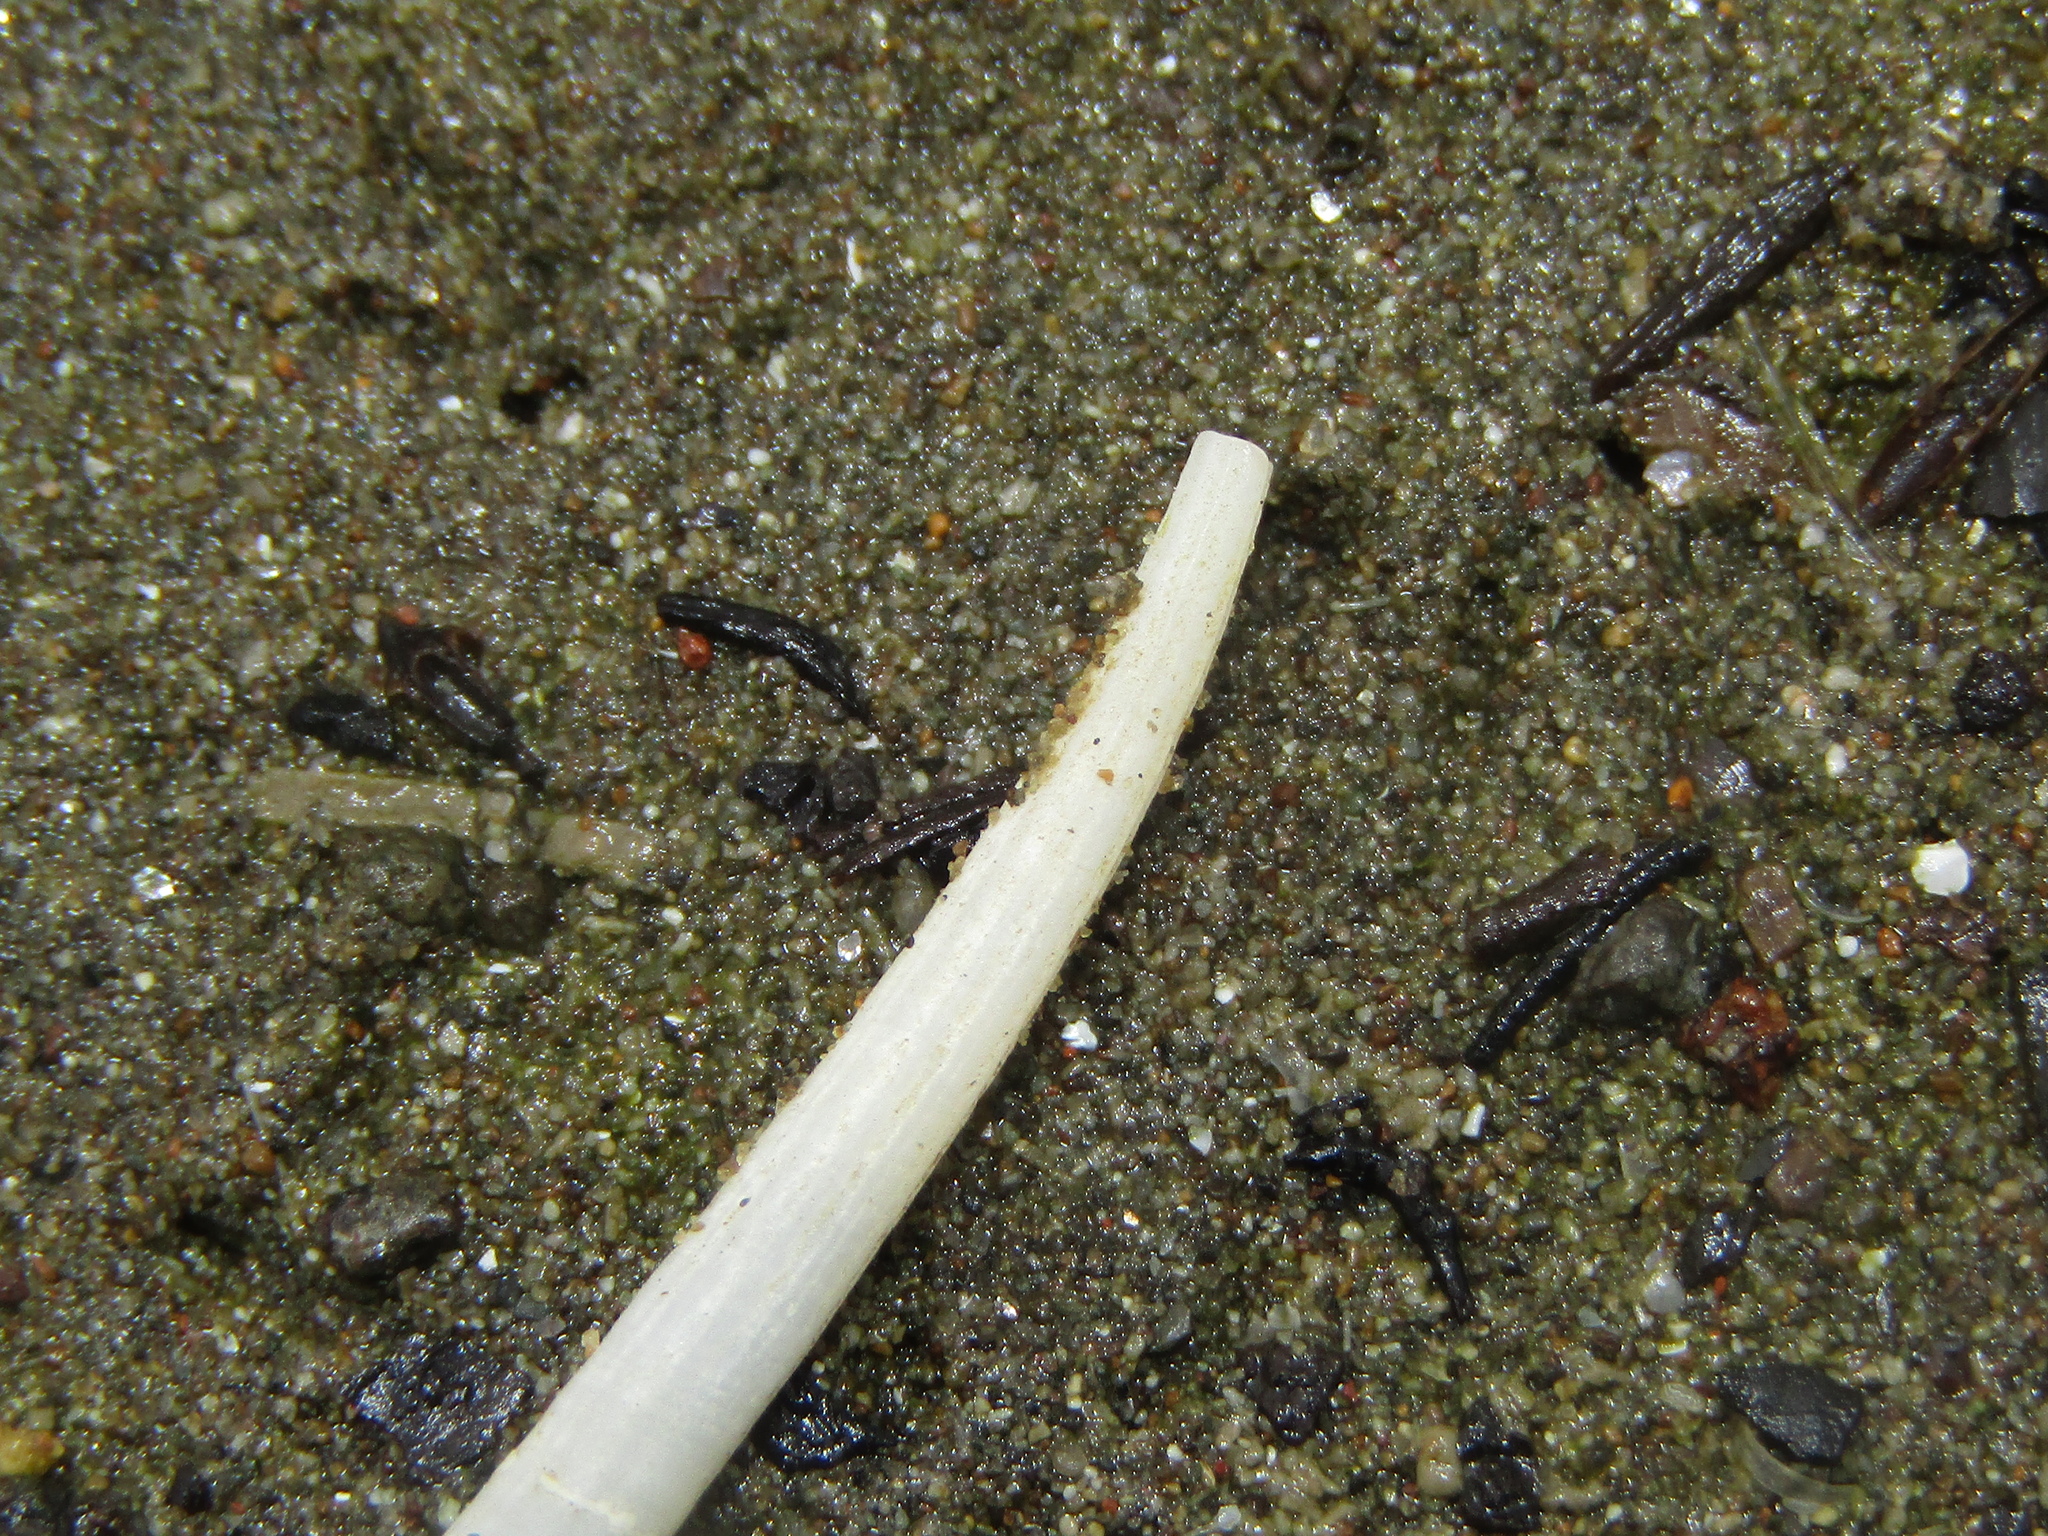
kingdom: Animalia
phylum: Mollusca
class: Scaphopoda
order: Dentaliida
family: Dentaliidae
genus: Antalis
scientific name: Antalis nana
